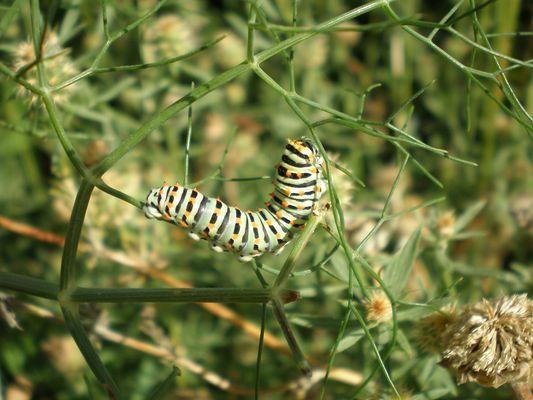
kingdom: Animalia
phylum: Arthropoda
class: Insecta
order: Lepidoptera
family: Papilionidae
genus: Papilio
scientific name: Papilio machaon
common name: Swallowtail
